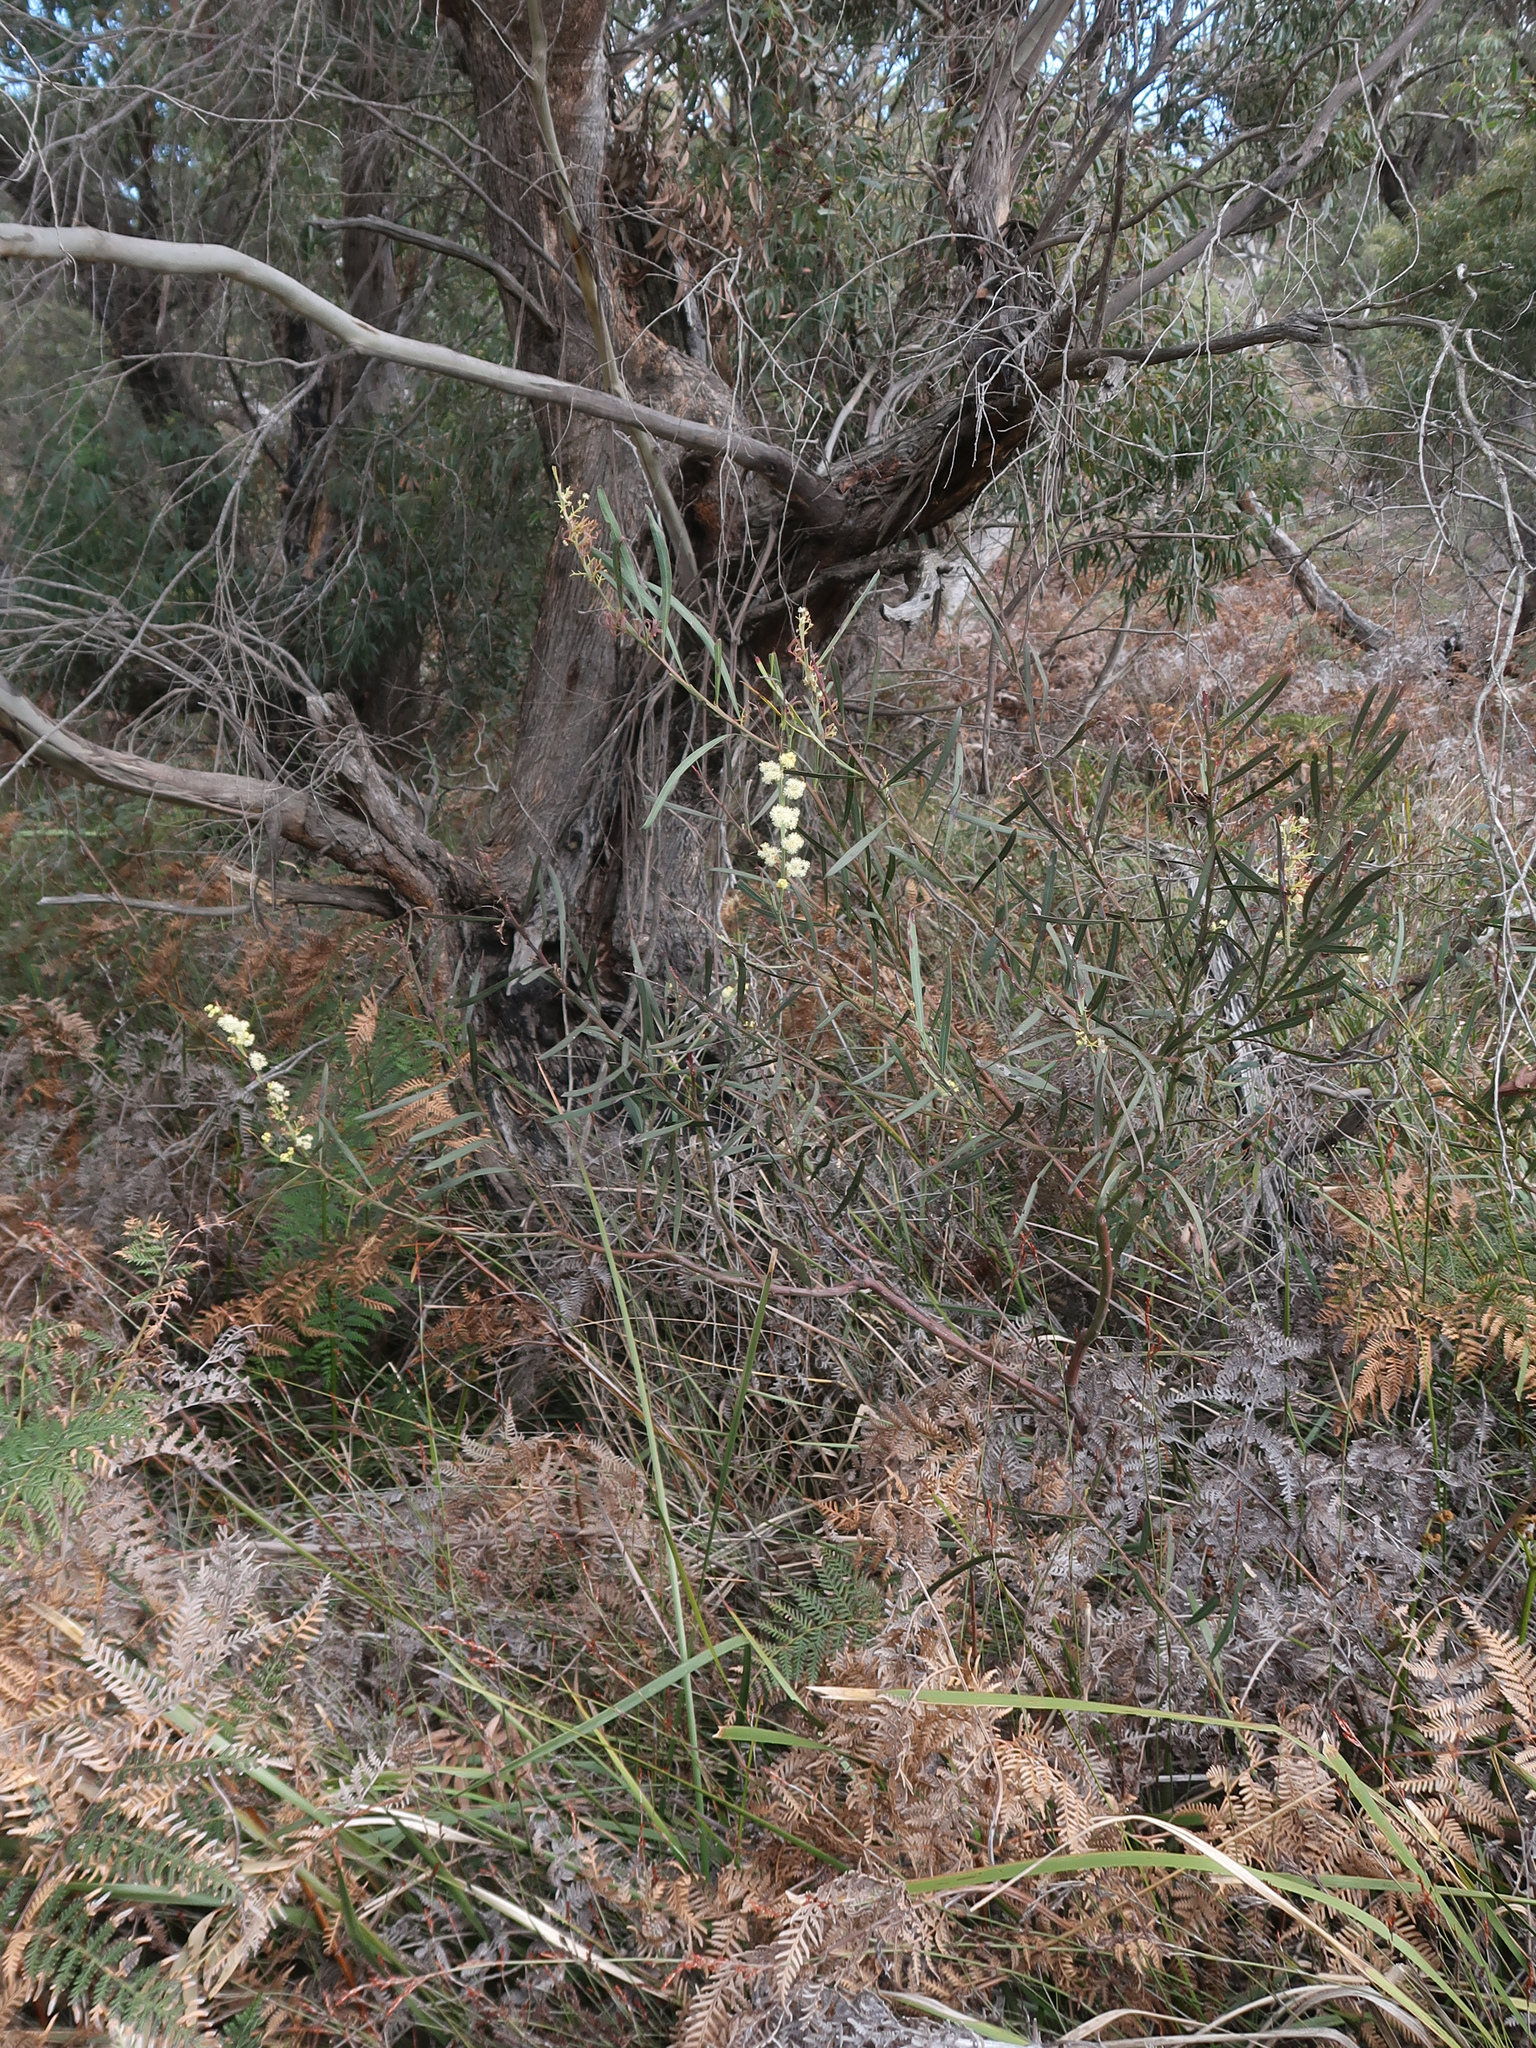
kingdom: Plantae
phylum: Tracheophyta
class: Magnoliopsida
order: Fabales
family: Fabaceae
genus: Acacia
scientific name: Acacia suaveolens
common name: Sweet acacia
